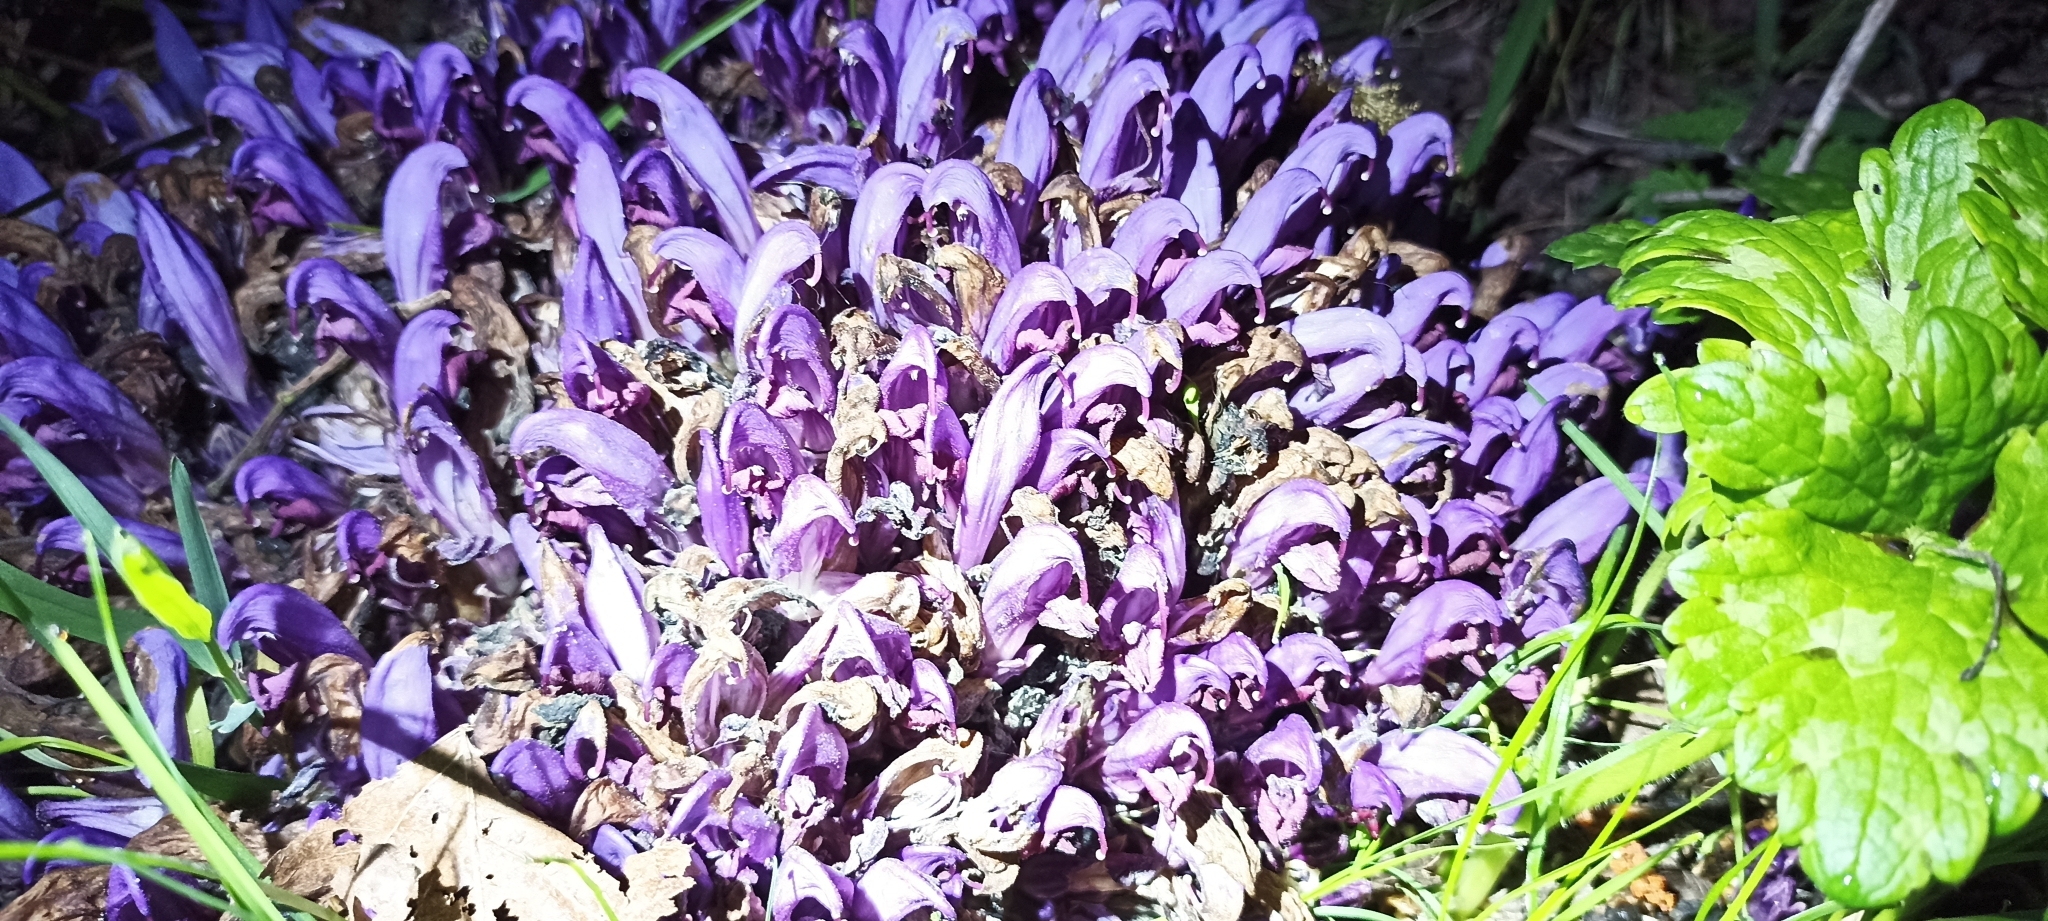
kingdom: Plantae
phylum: Tracheophyta
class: Magnoliopsida
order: Lamiales
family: Orobanchaceae
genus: Lathraea
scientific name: Lathraea clandestina
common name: Purple toothwort
